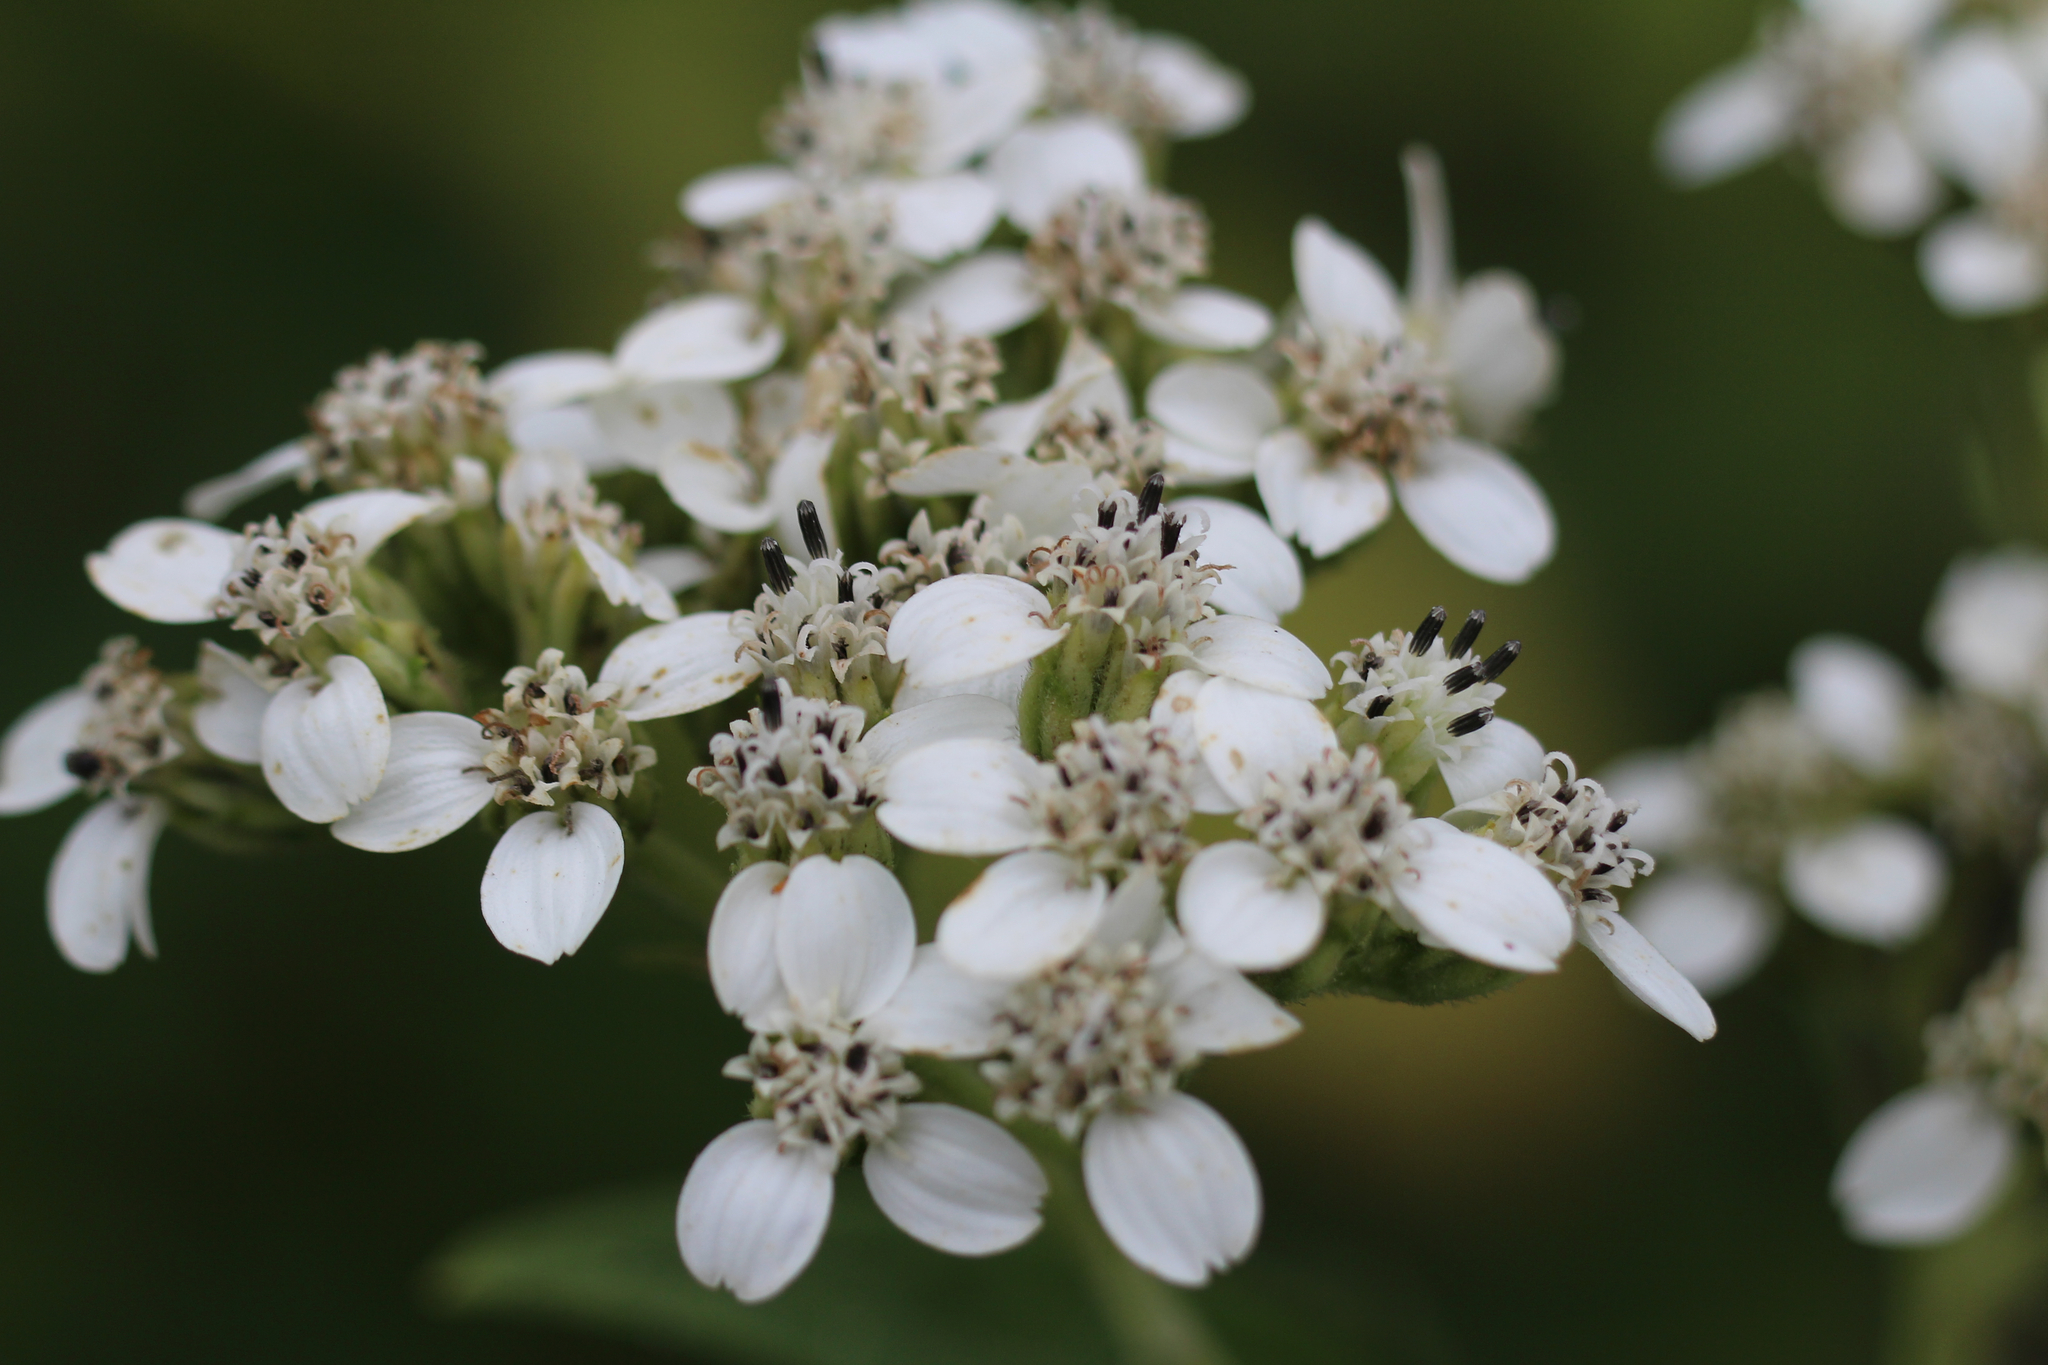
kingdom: Plantae
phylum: Tracheophyta
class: Magnoliopsida
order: Asterales
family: Asteraceae
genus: Verbesina
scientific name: Verbesina virginica
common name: Frostweed
